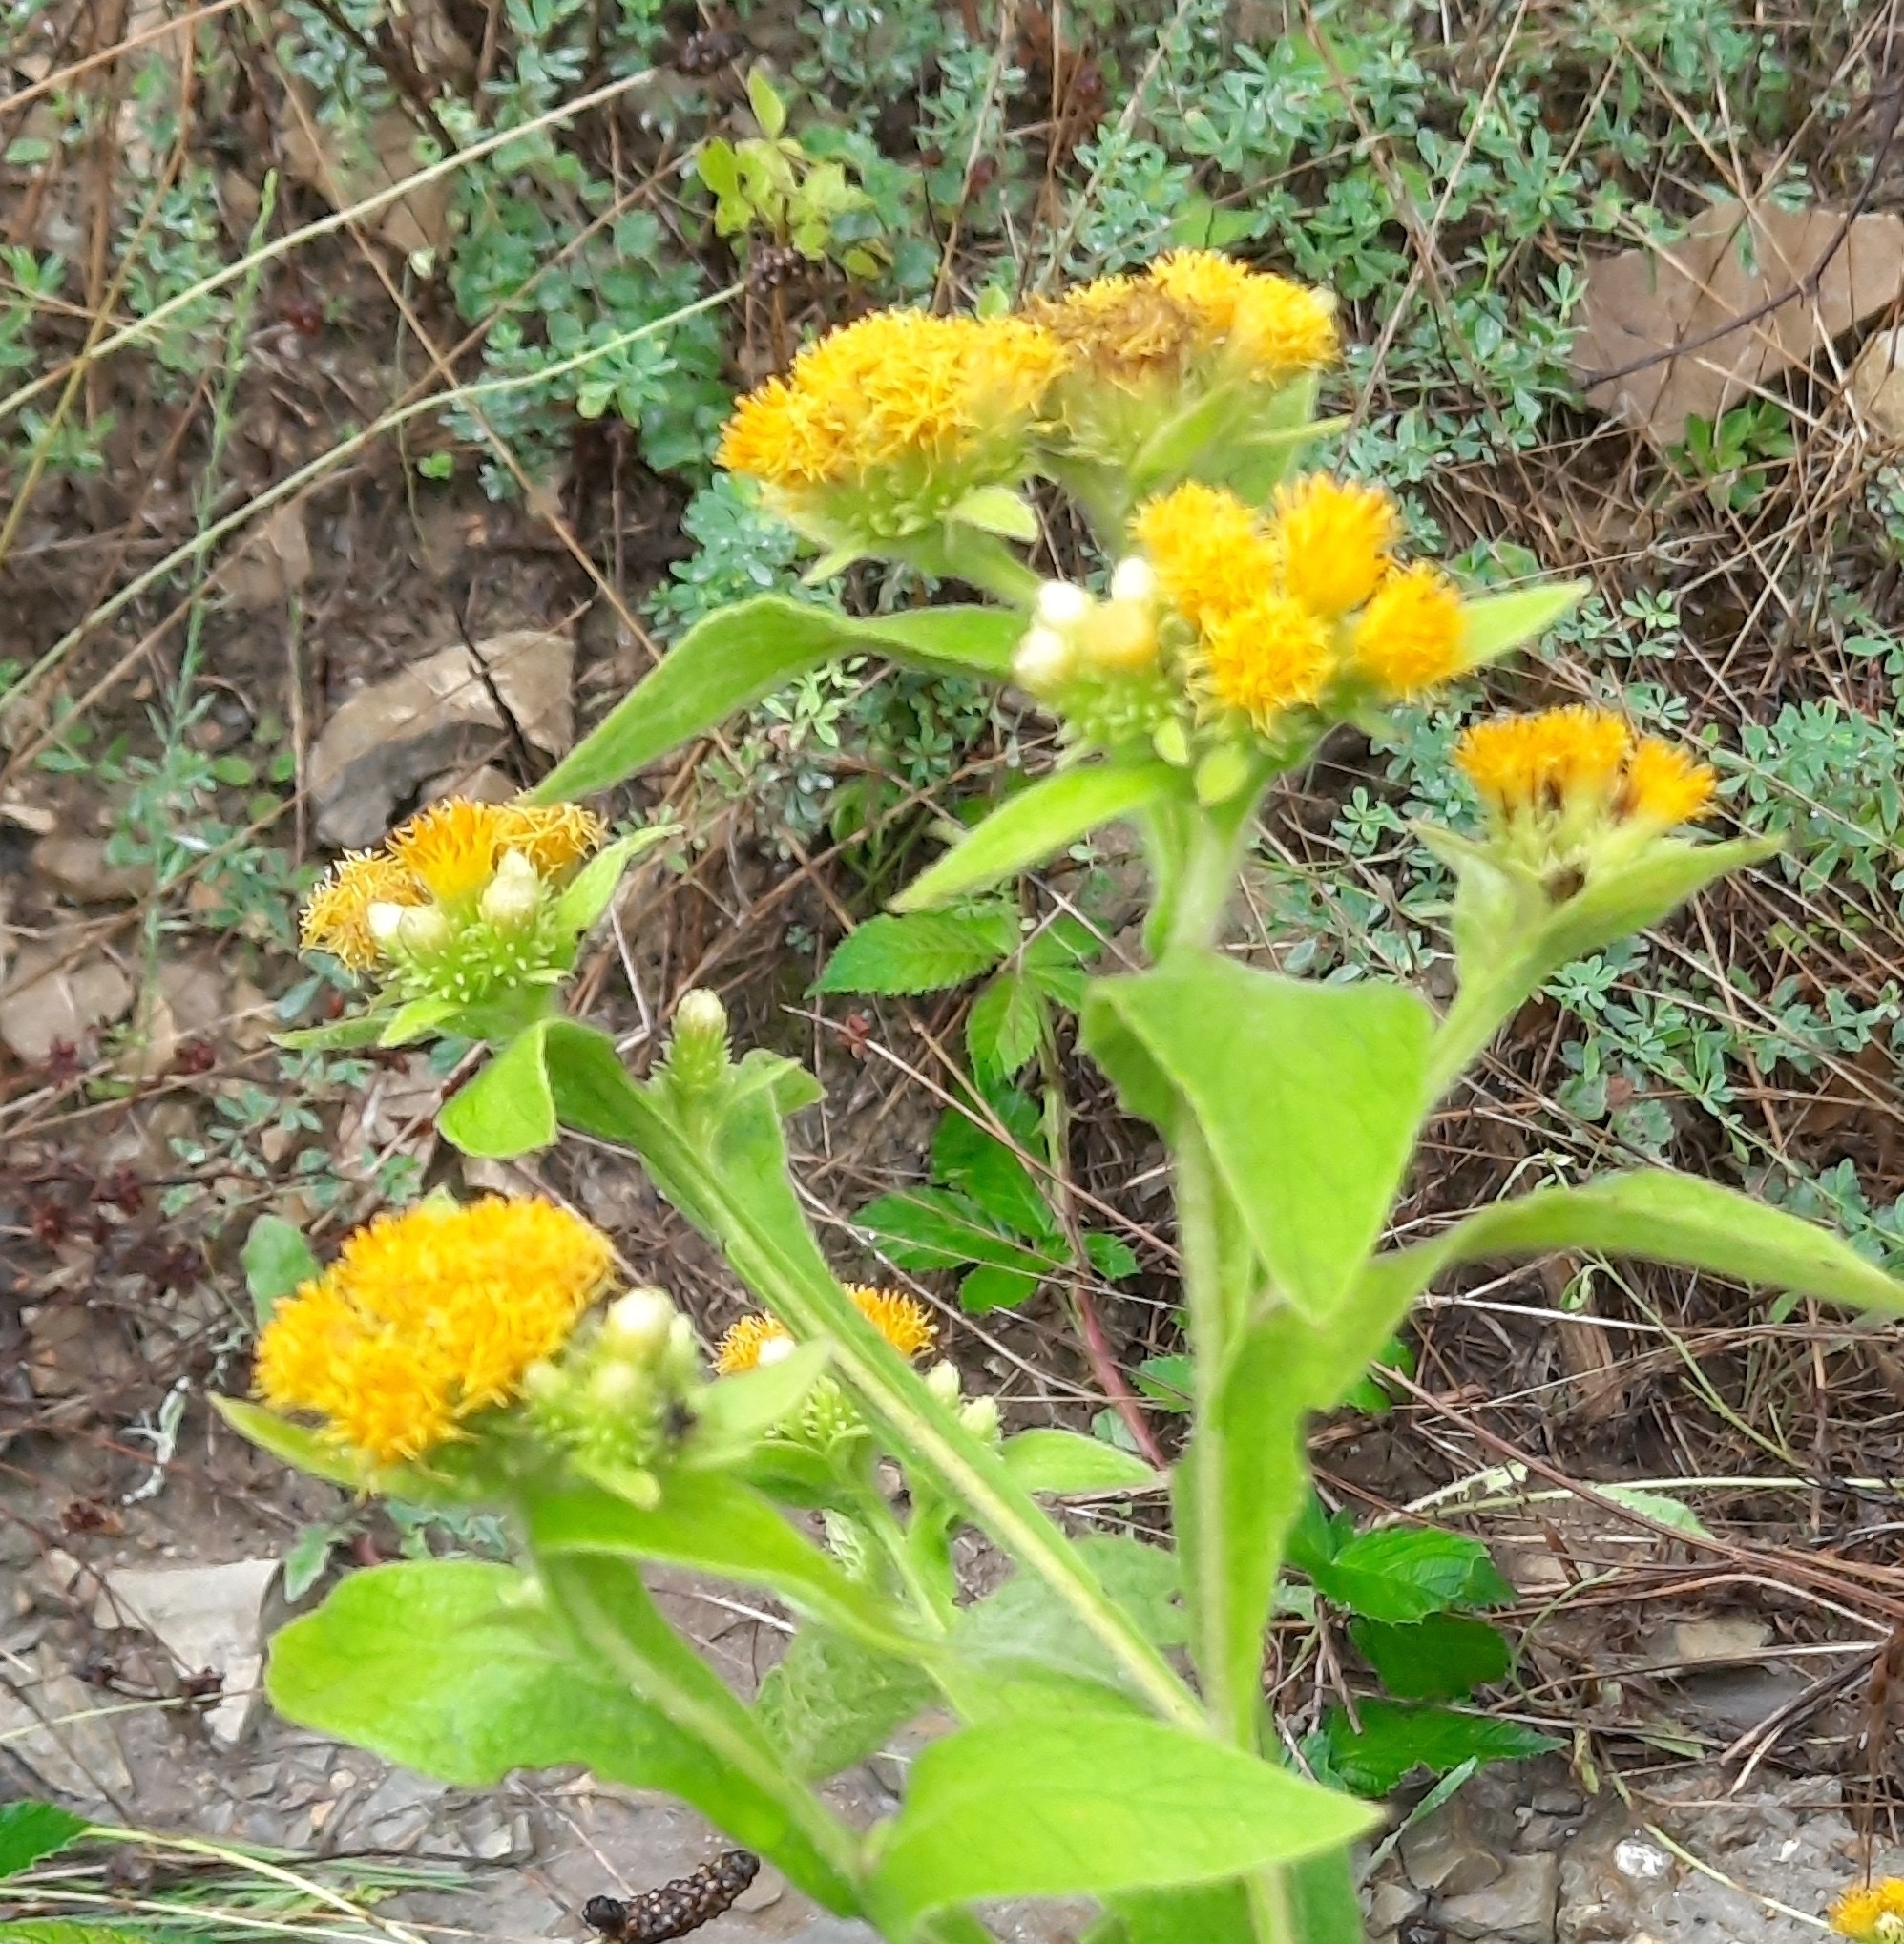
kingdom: Plantae
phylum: Tracheophyta
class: Magnoliopsida
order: Asterales
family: Asteraceae
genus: Inula
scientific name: Inula thapsoides
